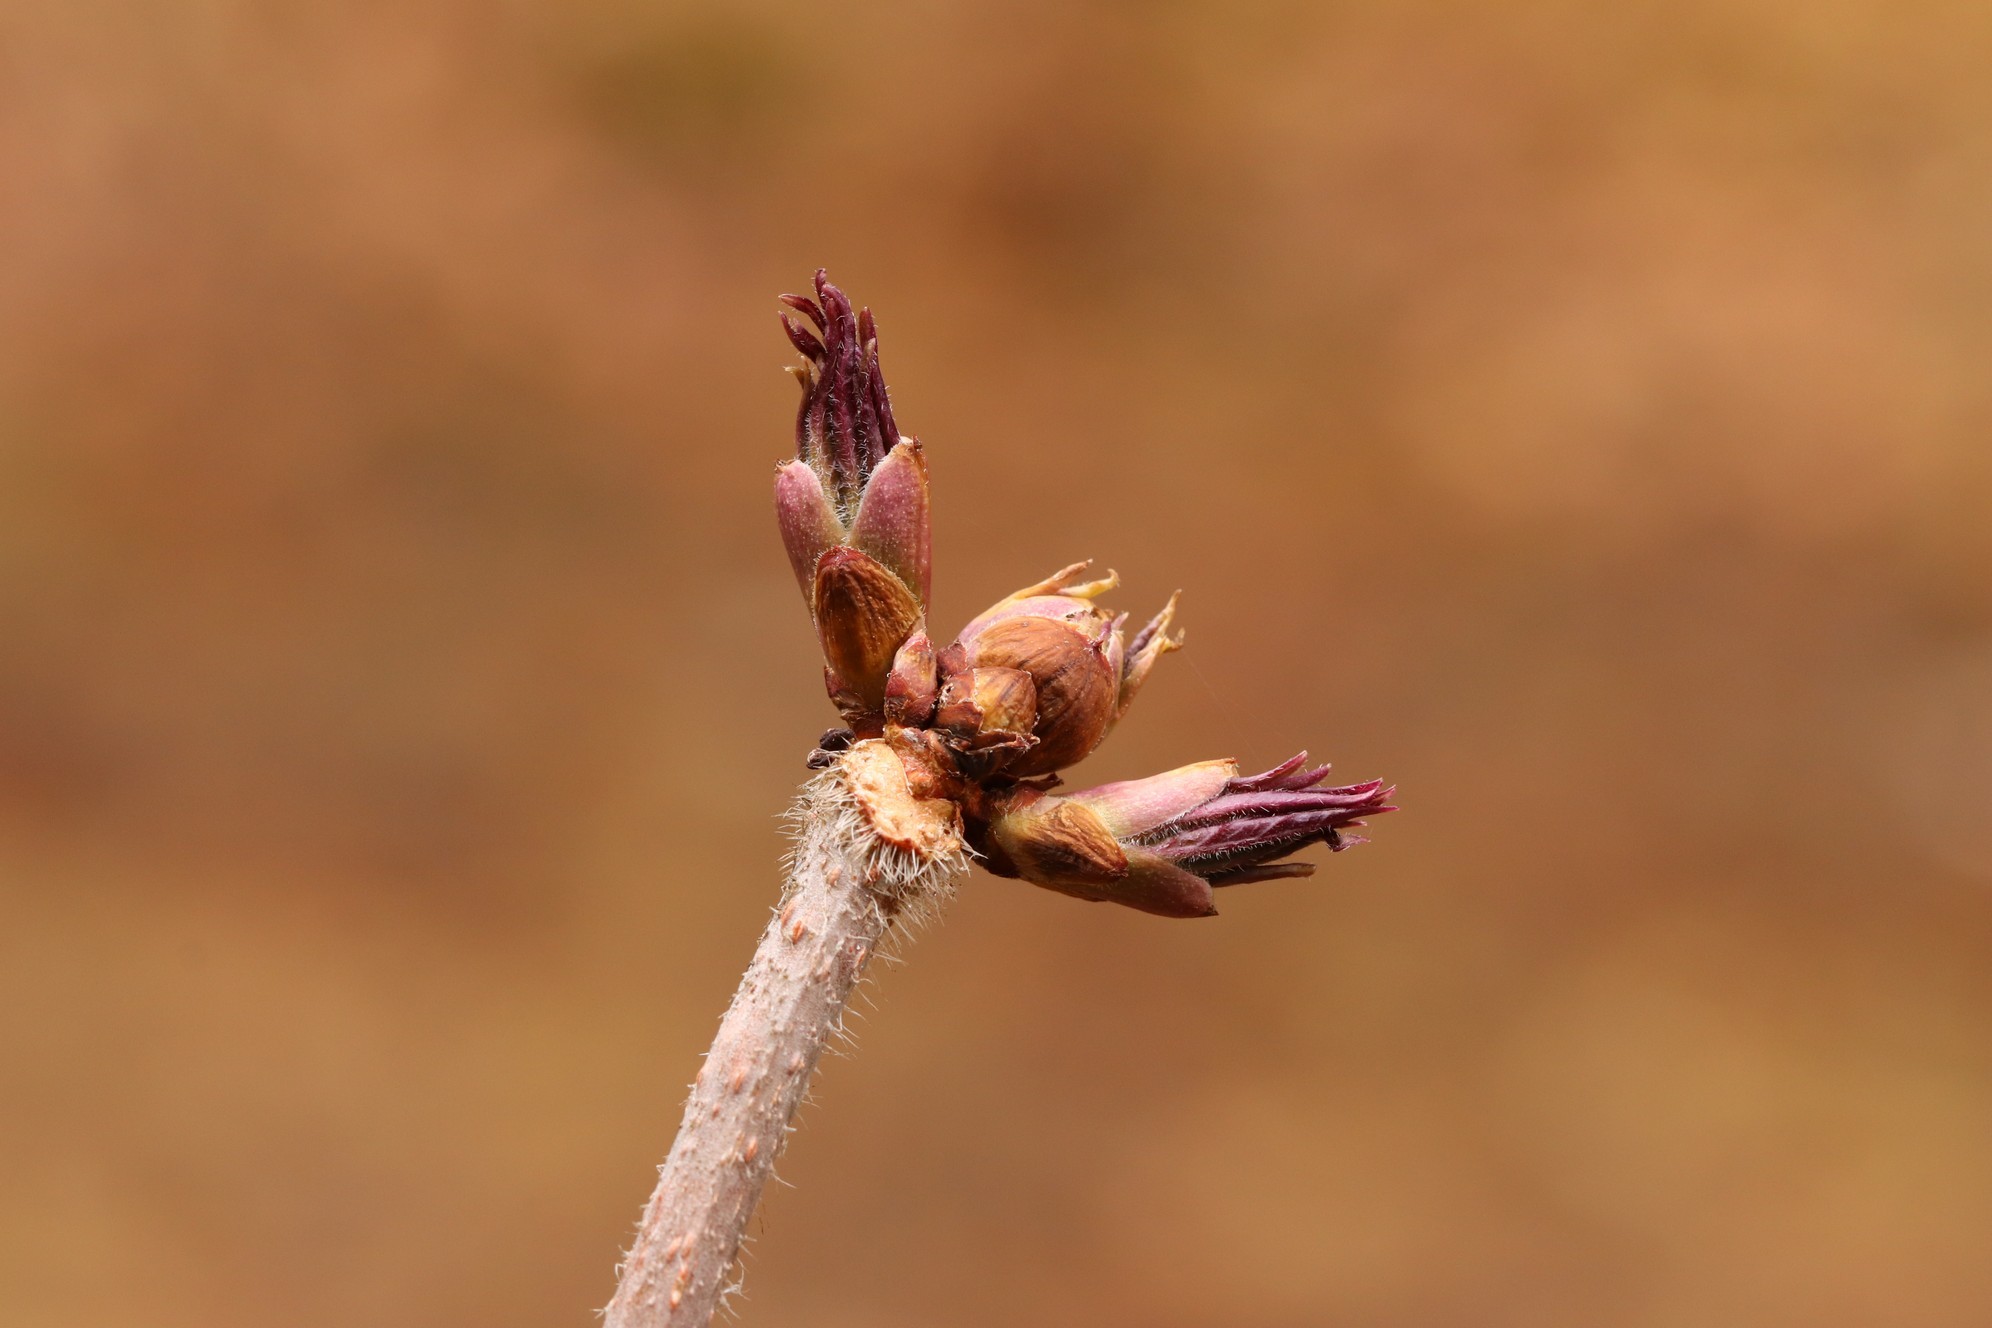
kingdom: Plantae
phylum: Tracheophyta
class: Magnoliopsida
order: Dipsacales
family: Viburnaceae
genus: Sambucus
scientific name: Sambucus sibirica
